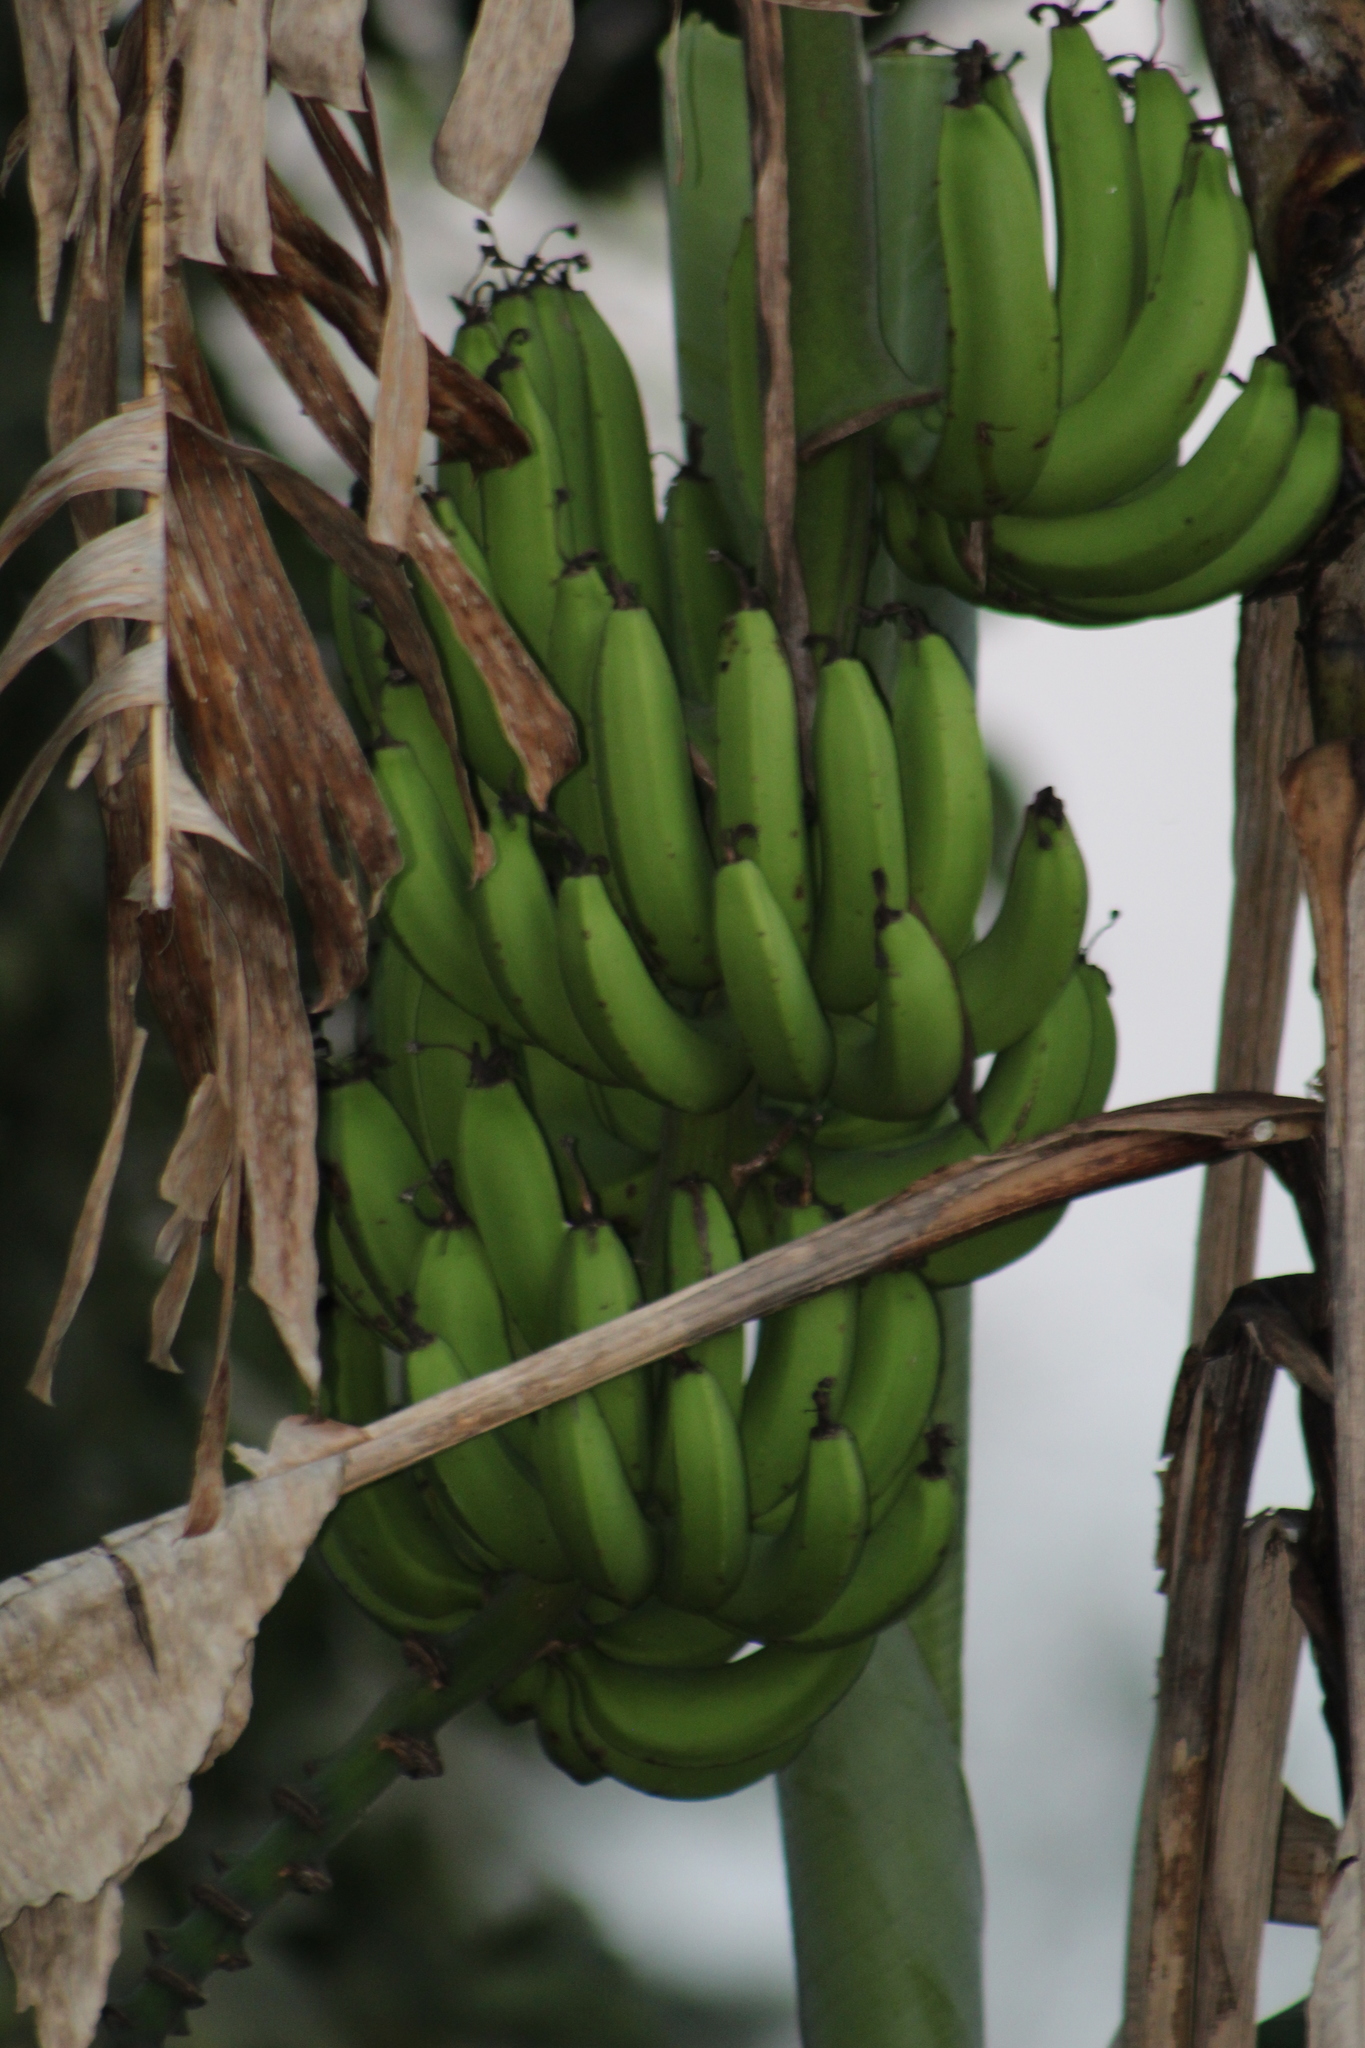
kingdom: Plantae
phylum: Tracheophyta
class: Liliopsida
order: Zingiberales
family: Musaceae
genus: Musa
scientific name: Musa acuminata
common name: Edible banana
